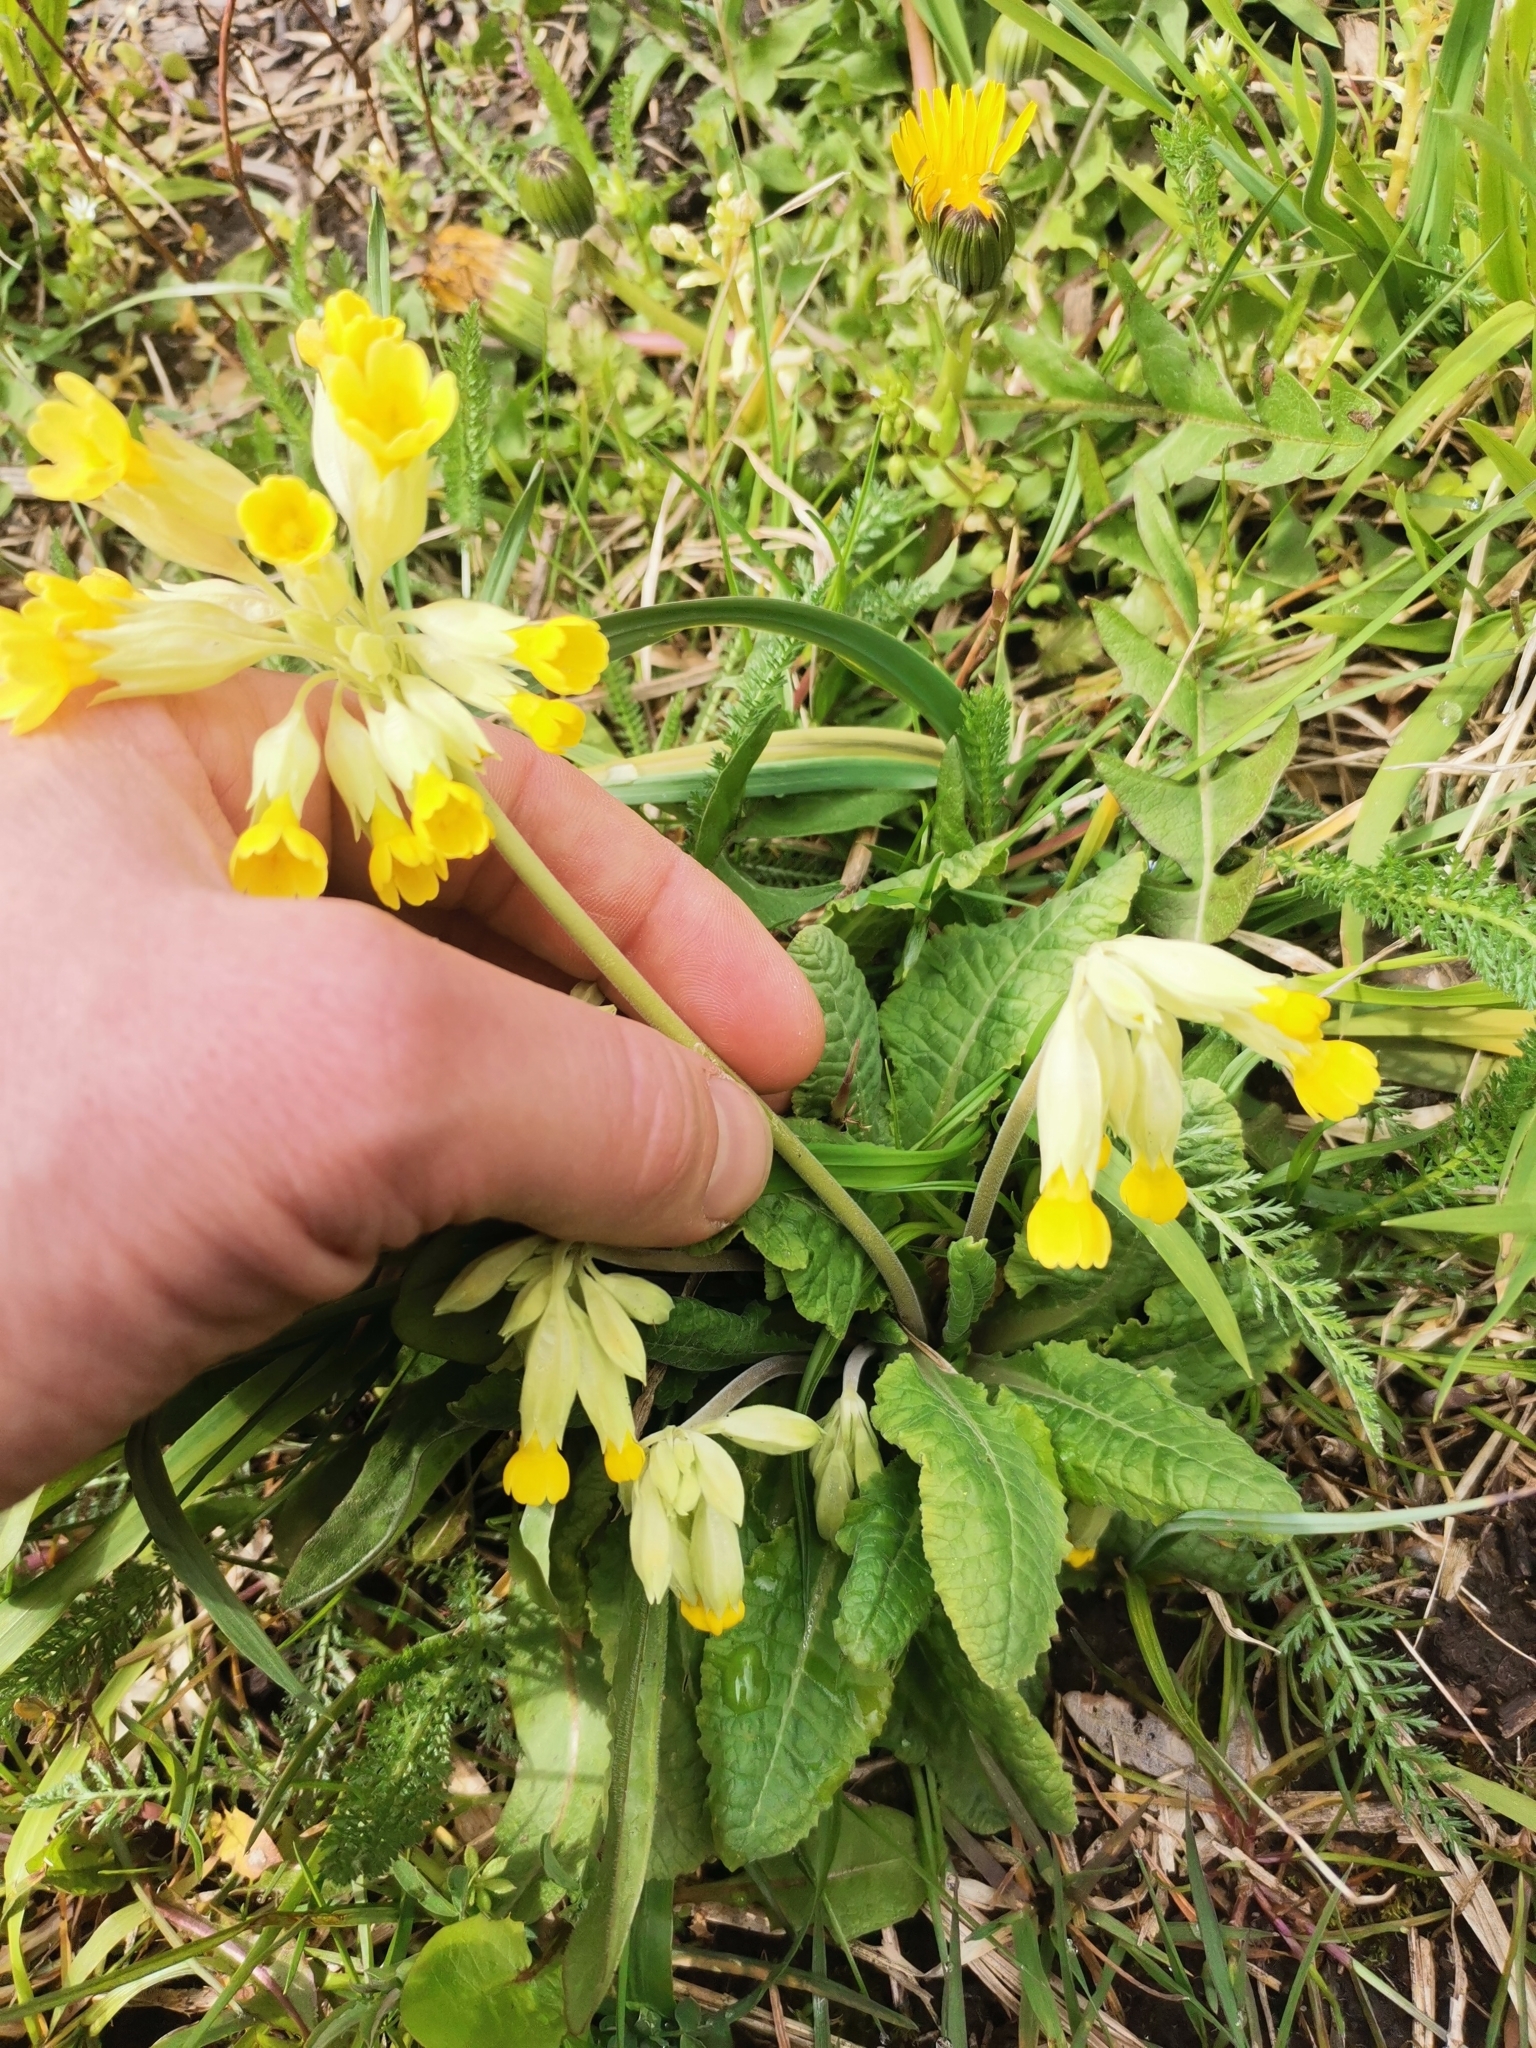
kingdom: Plantae
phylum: Tracheophyta
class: Magnoliopsida
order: Ericales
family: Primulaceae
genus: Primula
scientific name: Primula veris
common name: Cowslip
